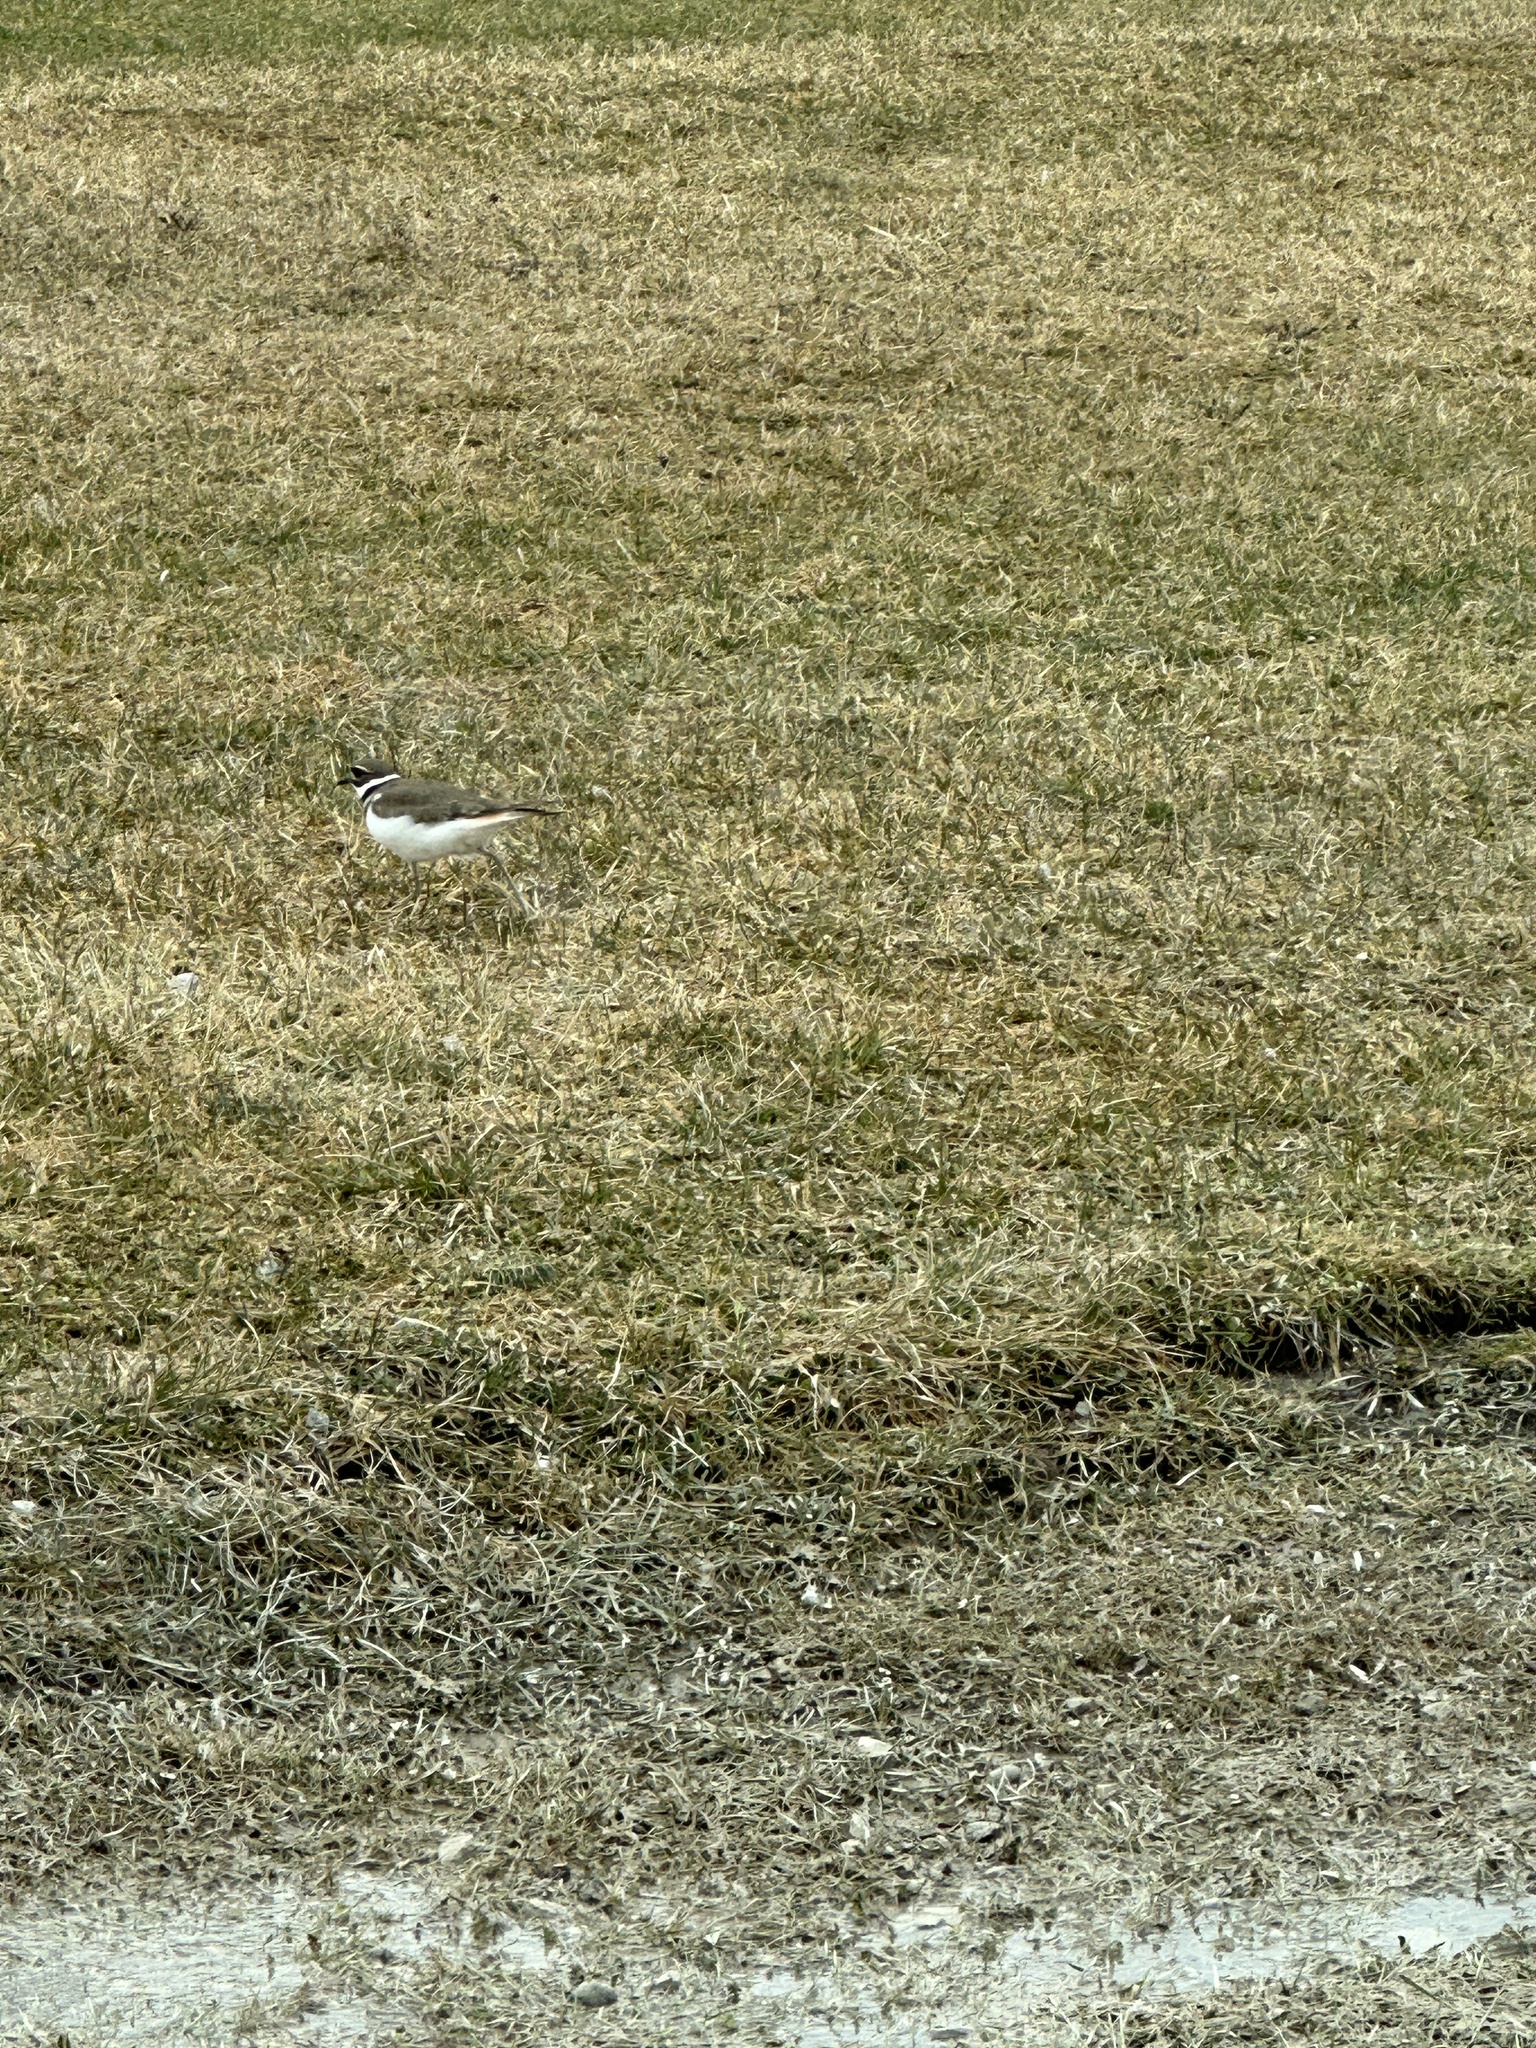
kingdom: Animalia
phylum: Chordata
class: Aves
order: Charadriiformes
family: Charadriidae
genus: Charadrius
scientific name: Charadrius vociferus
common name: Killdeer
